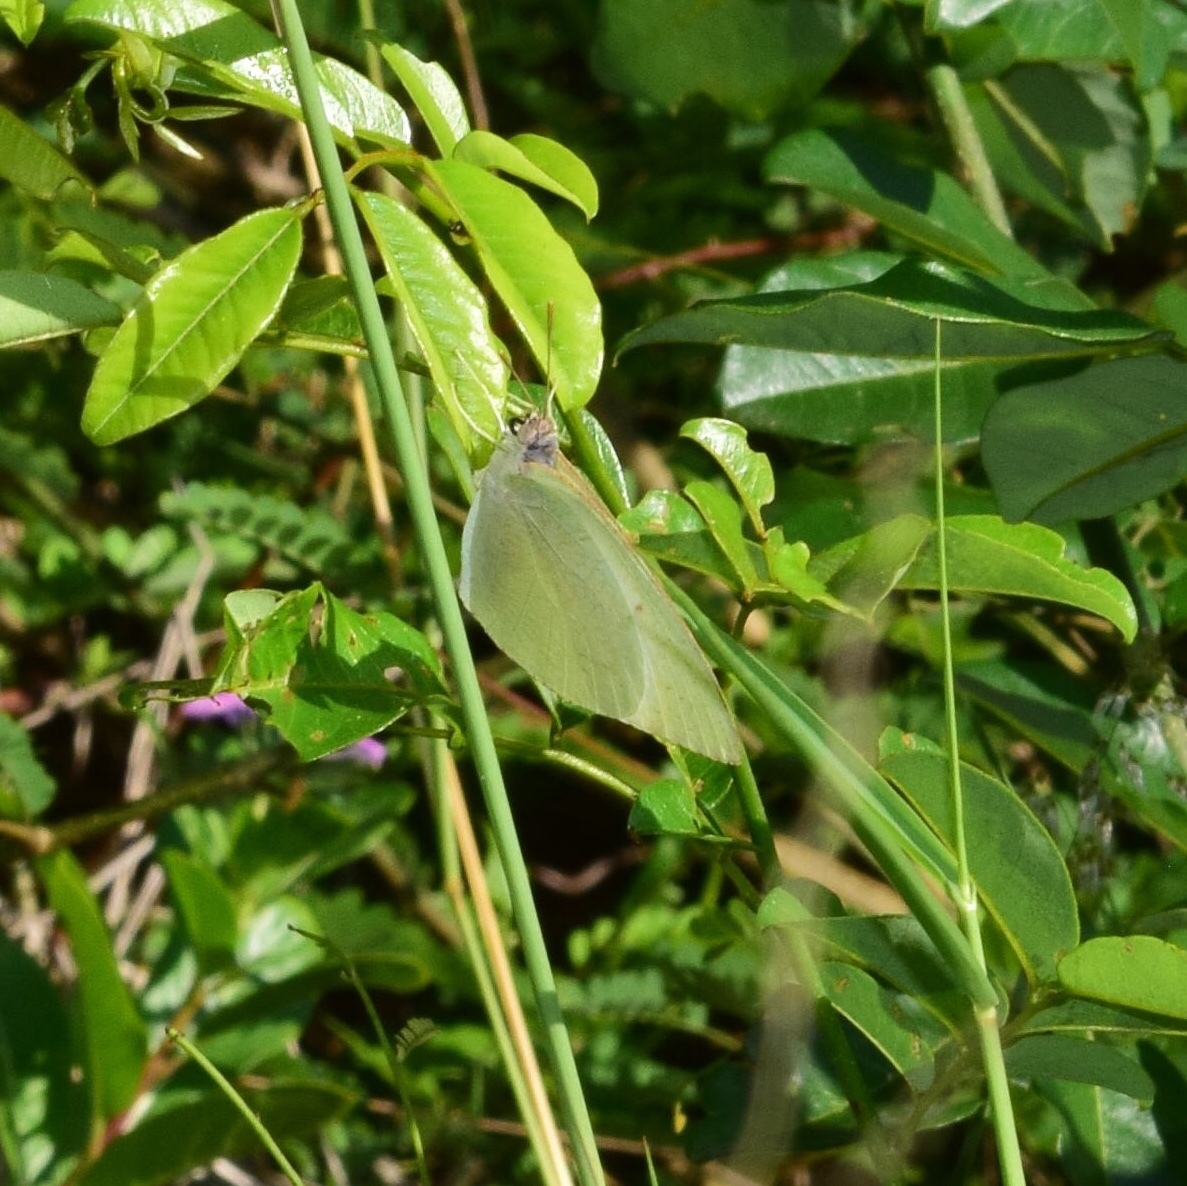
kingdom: Animalia
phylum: Arthropoda
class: Insecta
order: Lepidoptera
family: Pieridae
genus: Catopsilia
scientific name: Catopsilia florella
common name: African migrant
